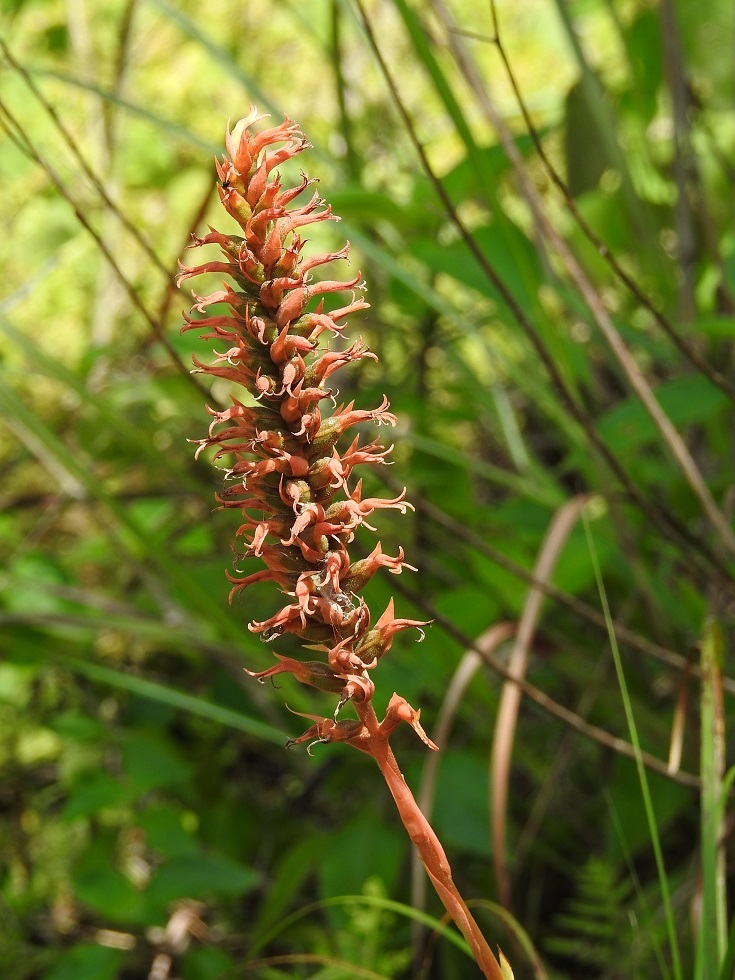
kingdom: Plantae
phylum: Tracheophyta
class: Liliopsida
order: Asparagales
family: Orchidaceae
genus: Dichromanthus
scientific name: Dichromanthus cinnabarinus
